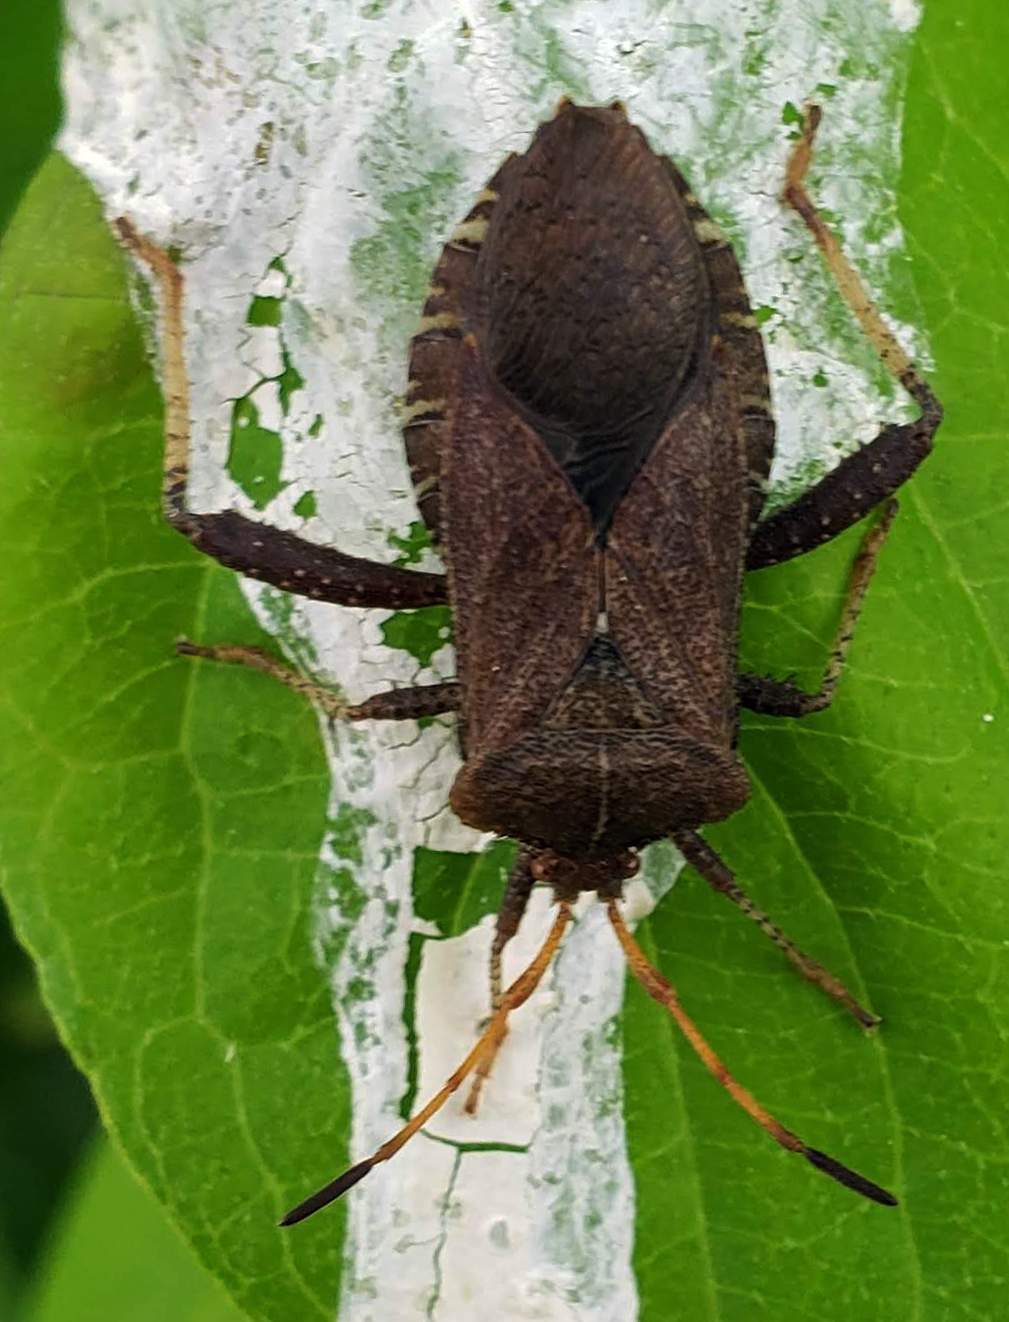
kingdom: Animalia
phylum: Arthropoda
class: Insecta
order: Hemiptera
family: Coreidae
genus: Euthochtha
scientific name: Euthochtha galeator
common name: Helmeted squash bug
